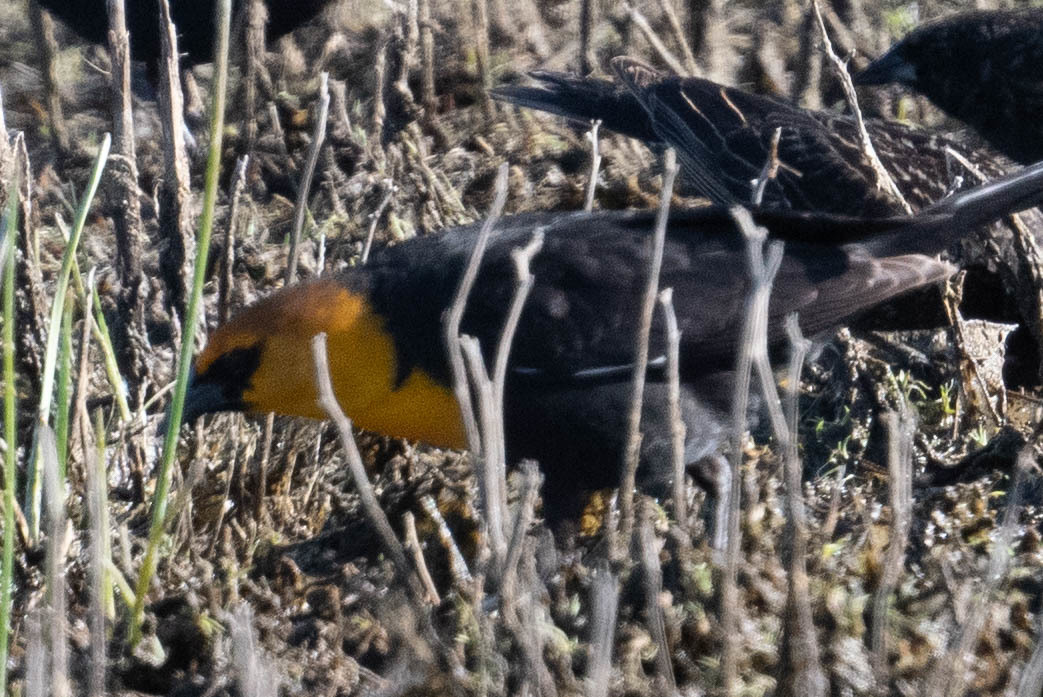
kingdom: Animalia
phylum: Chordata
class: Aves
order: Passeriformes
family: Icteridae
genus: Xanthocephalus
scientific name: Xanthocephalus xanthocephalus
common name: Yellow-headed blackbird
